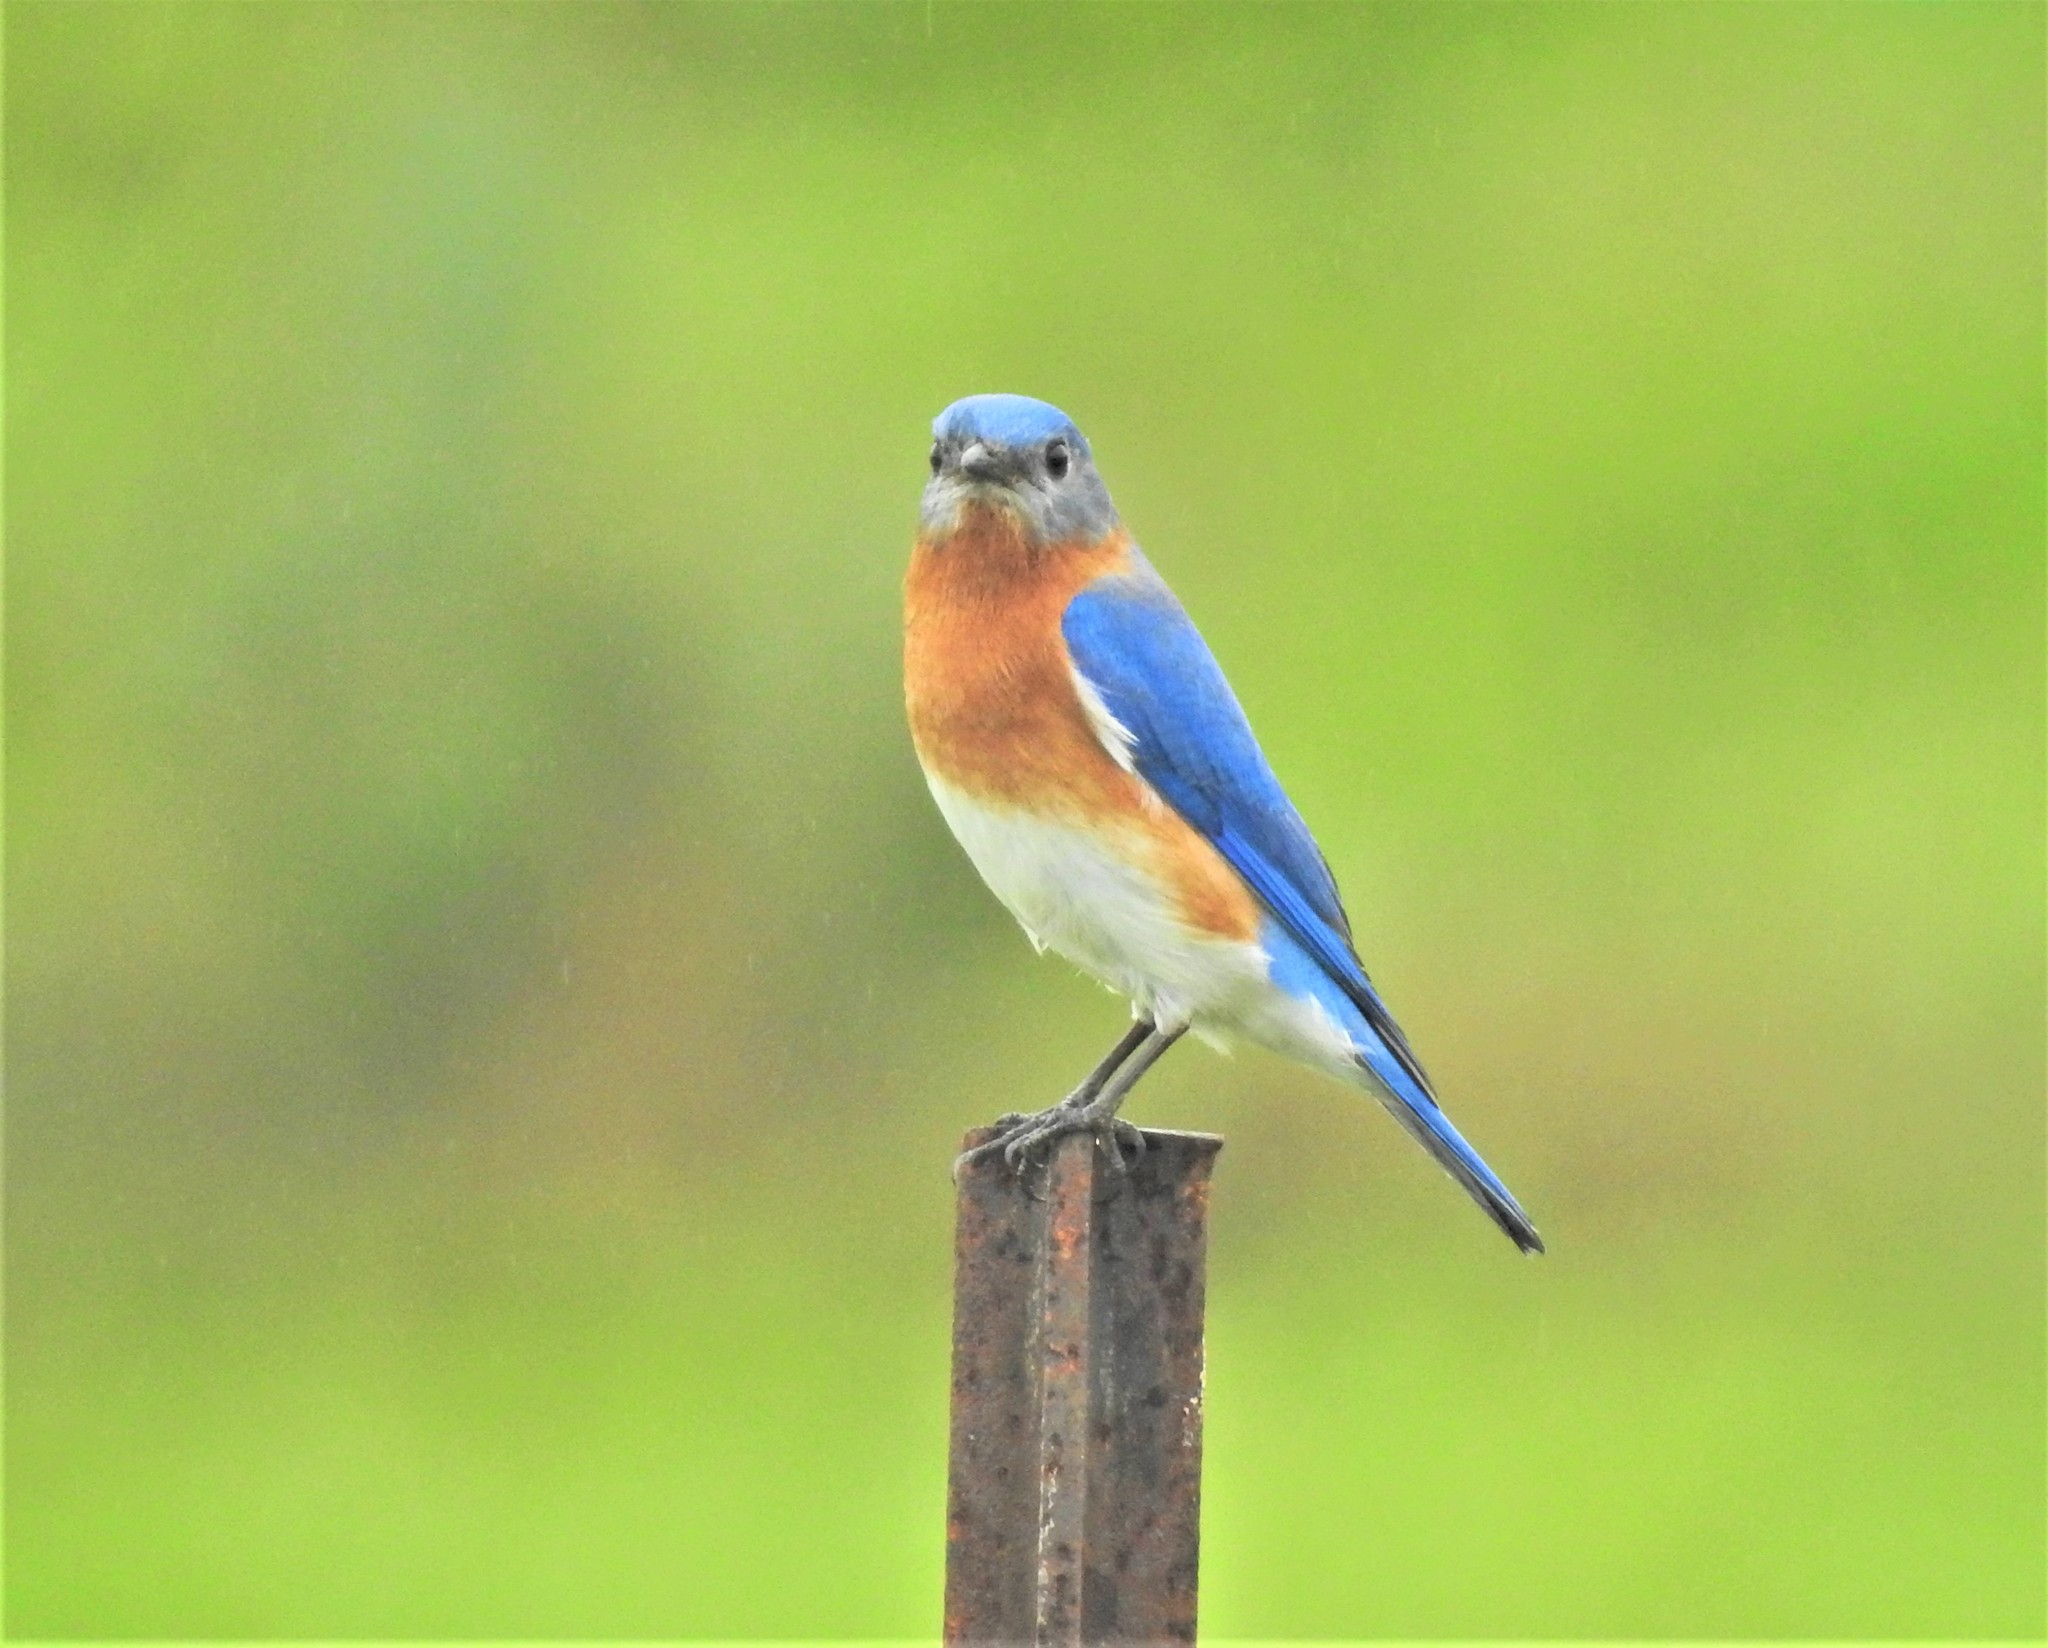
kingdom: Animalia
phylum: Chordata
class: Aves
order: Passeriformes
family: Turdidae
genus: Sialia
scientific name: Sialia sialis
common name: Eastern bluebird
